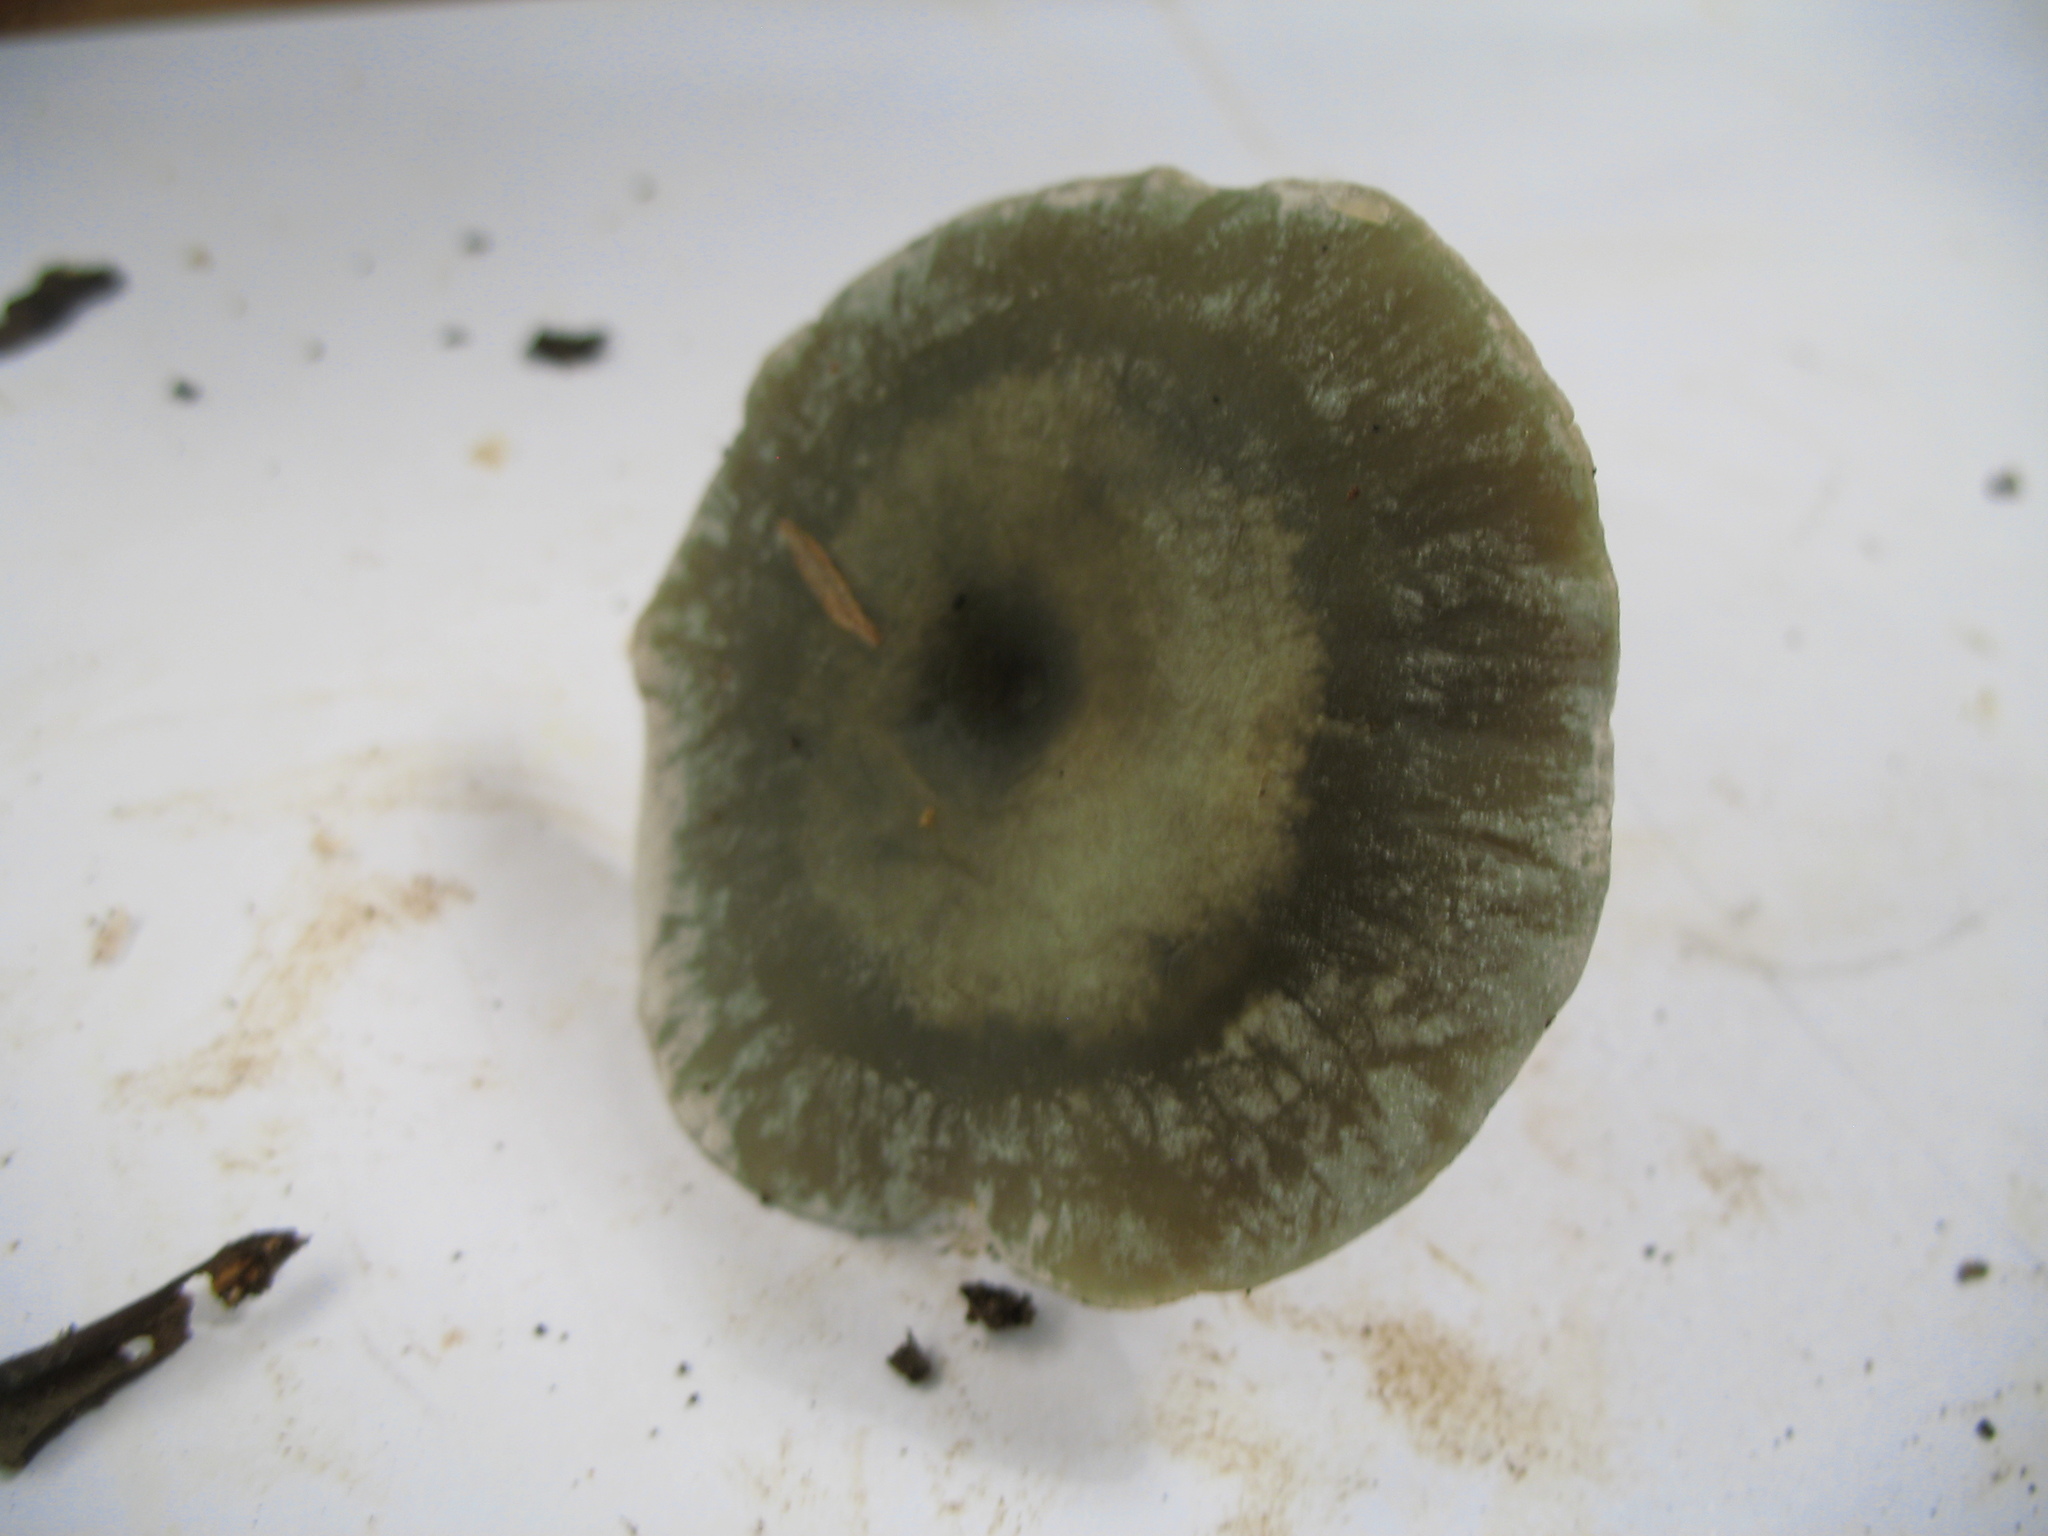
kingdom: Fungi
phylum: Basidiomycota
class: Agaricomycetes
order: Agaricales
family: Tricholomataceae
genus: Collybia
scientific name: Collybia
